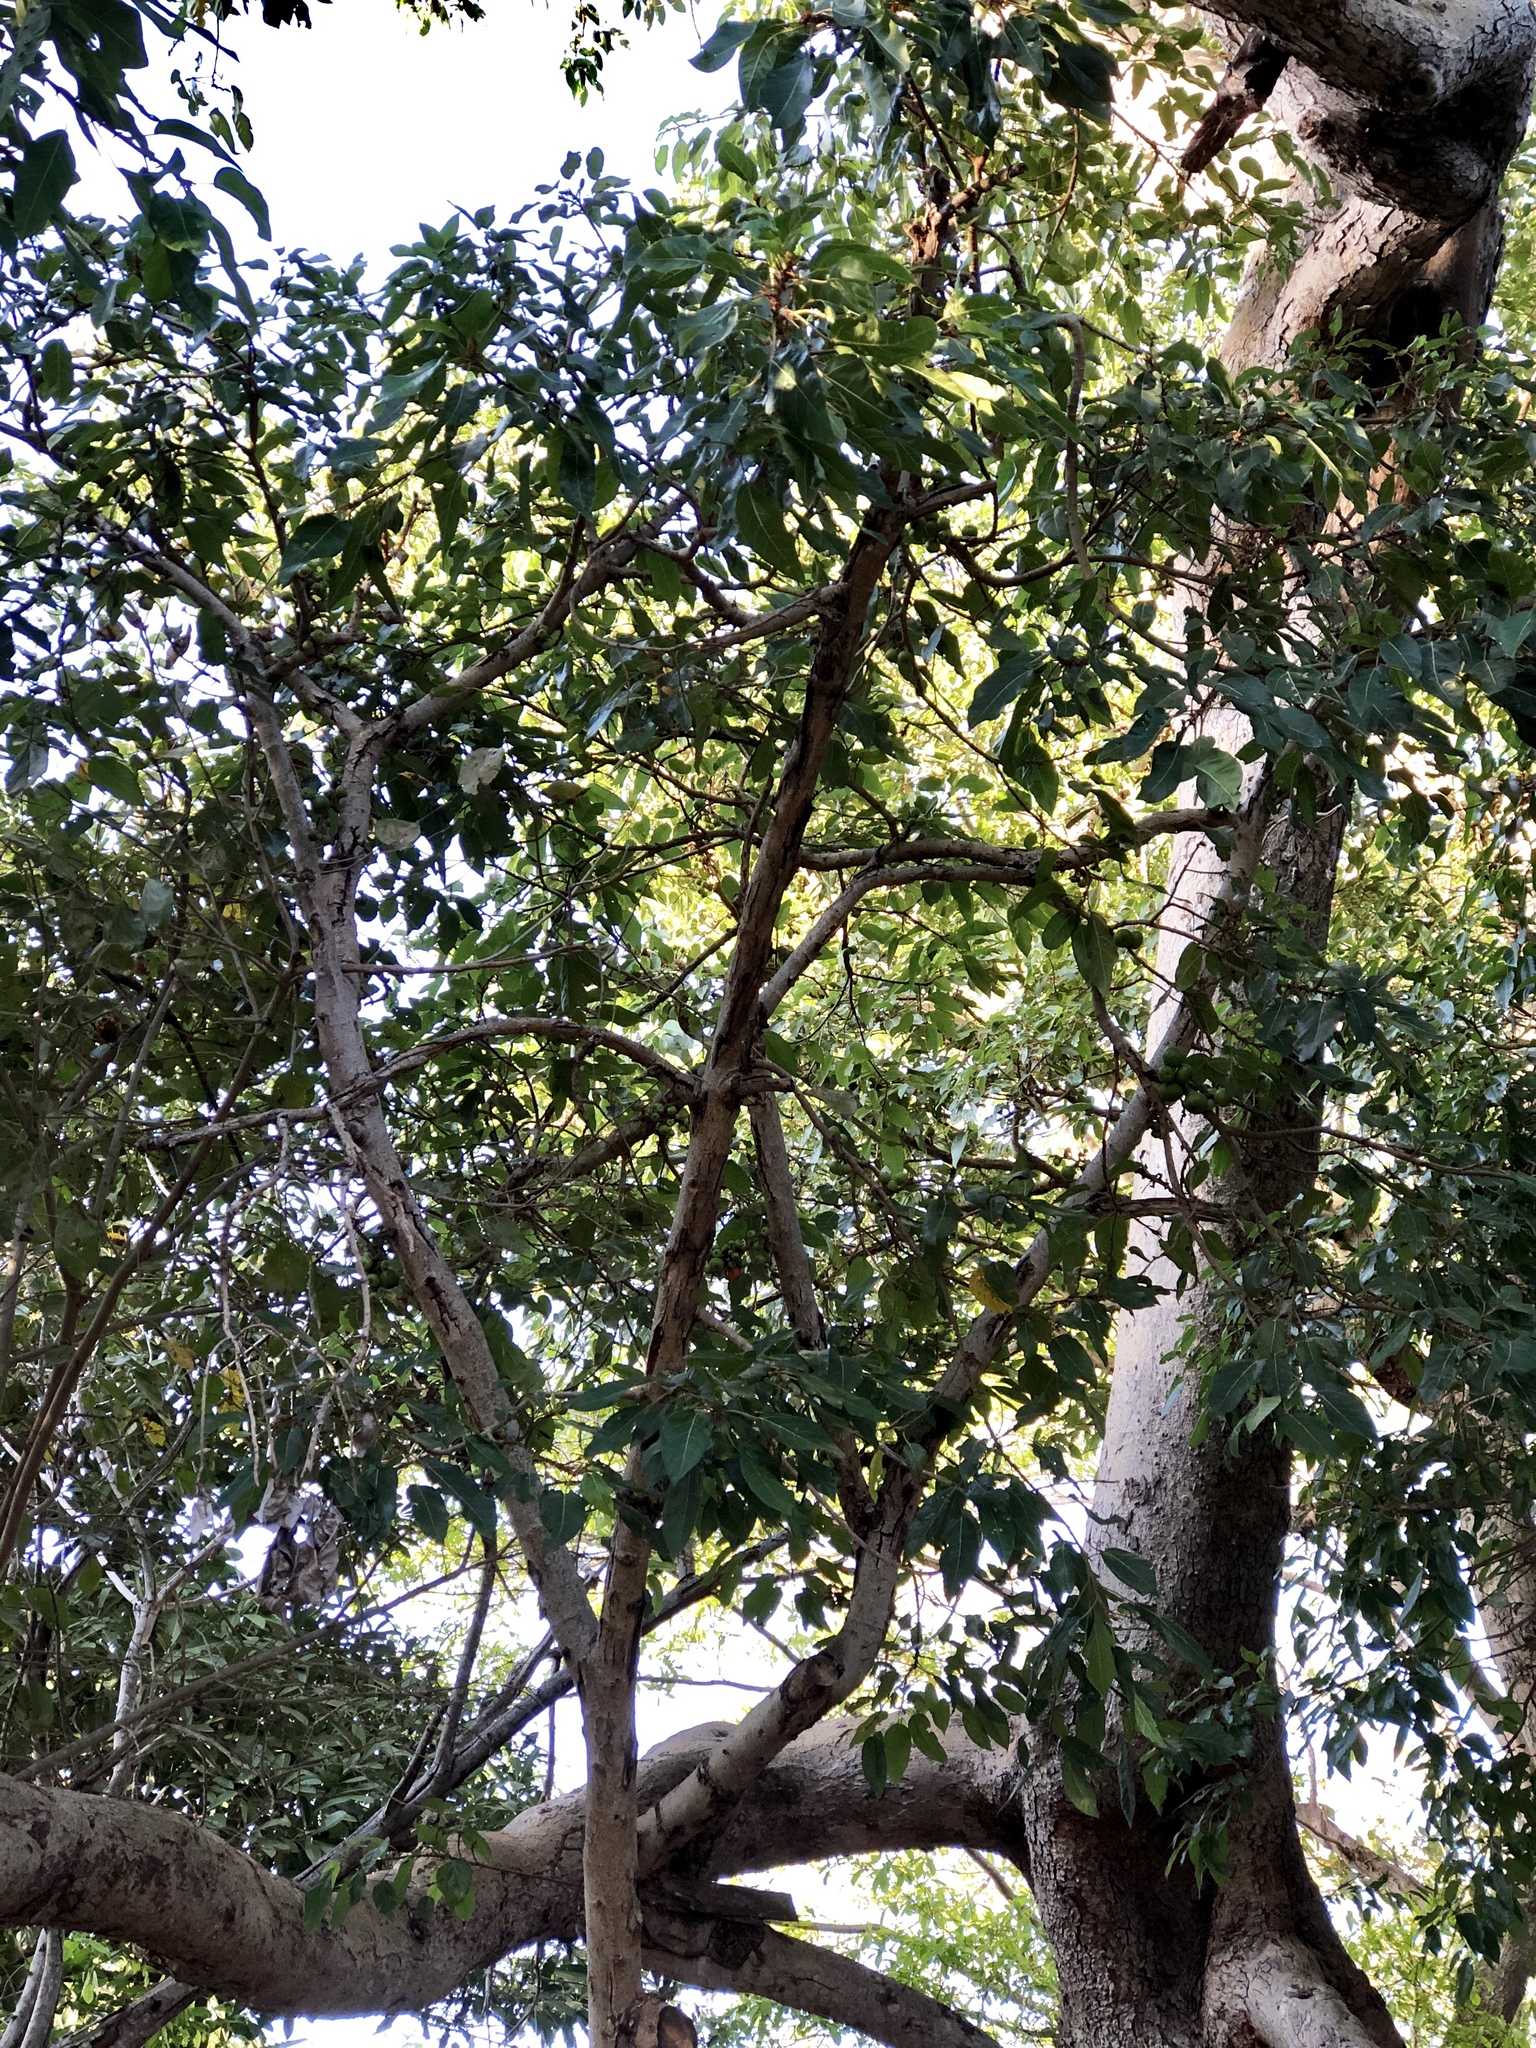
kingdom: Plantae
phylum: Tracheophyta
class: Magnoliopsida
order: Rosales
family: Moraceae
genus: Ficus
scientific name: Ficus racemosa
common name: Cluster fig
